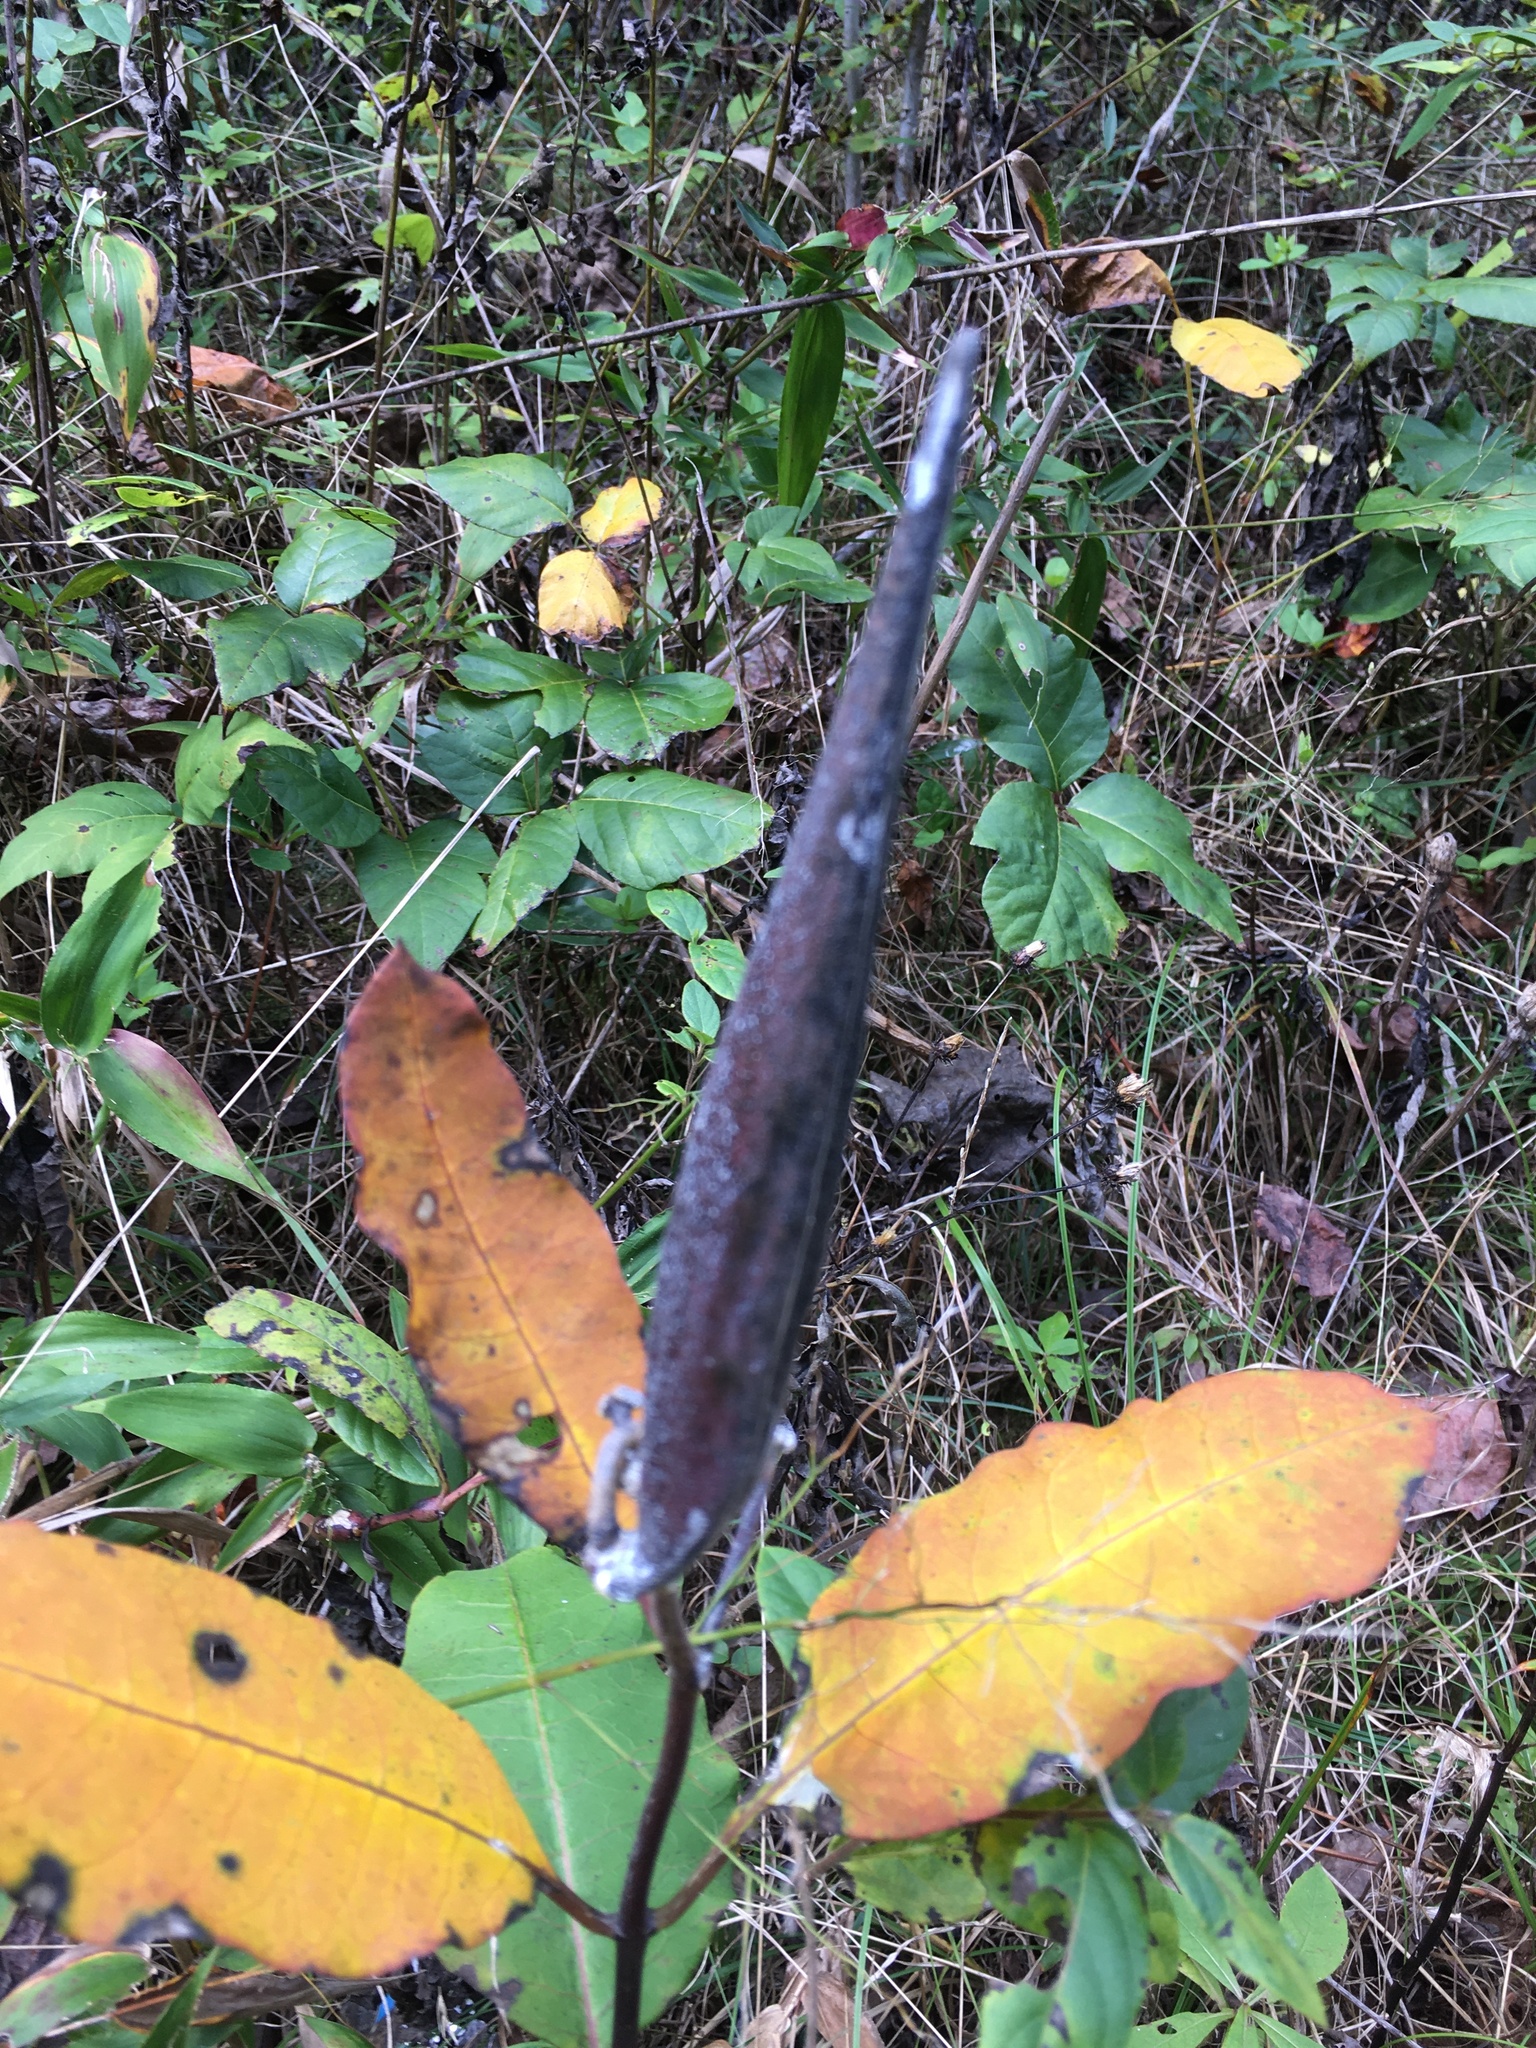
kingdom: Plantae
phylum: Tracheophyta
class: Magnoliopsida
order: Gentianales
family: Apocynaceae
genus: Asclepias
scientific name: Asclepias variegata
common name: Variegated milkweed
